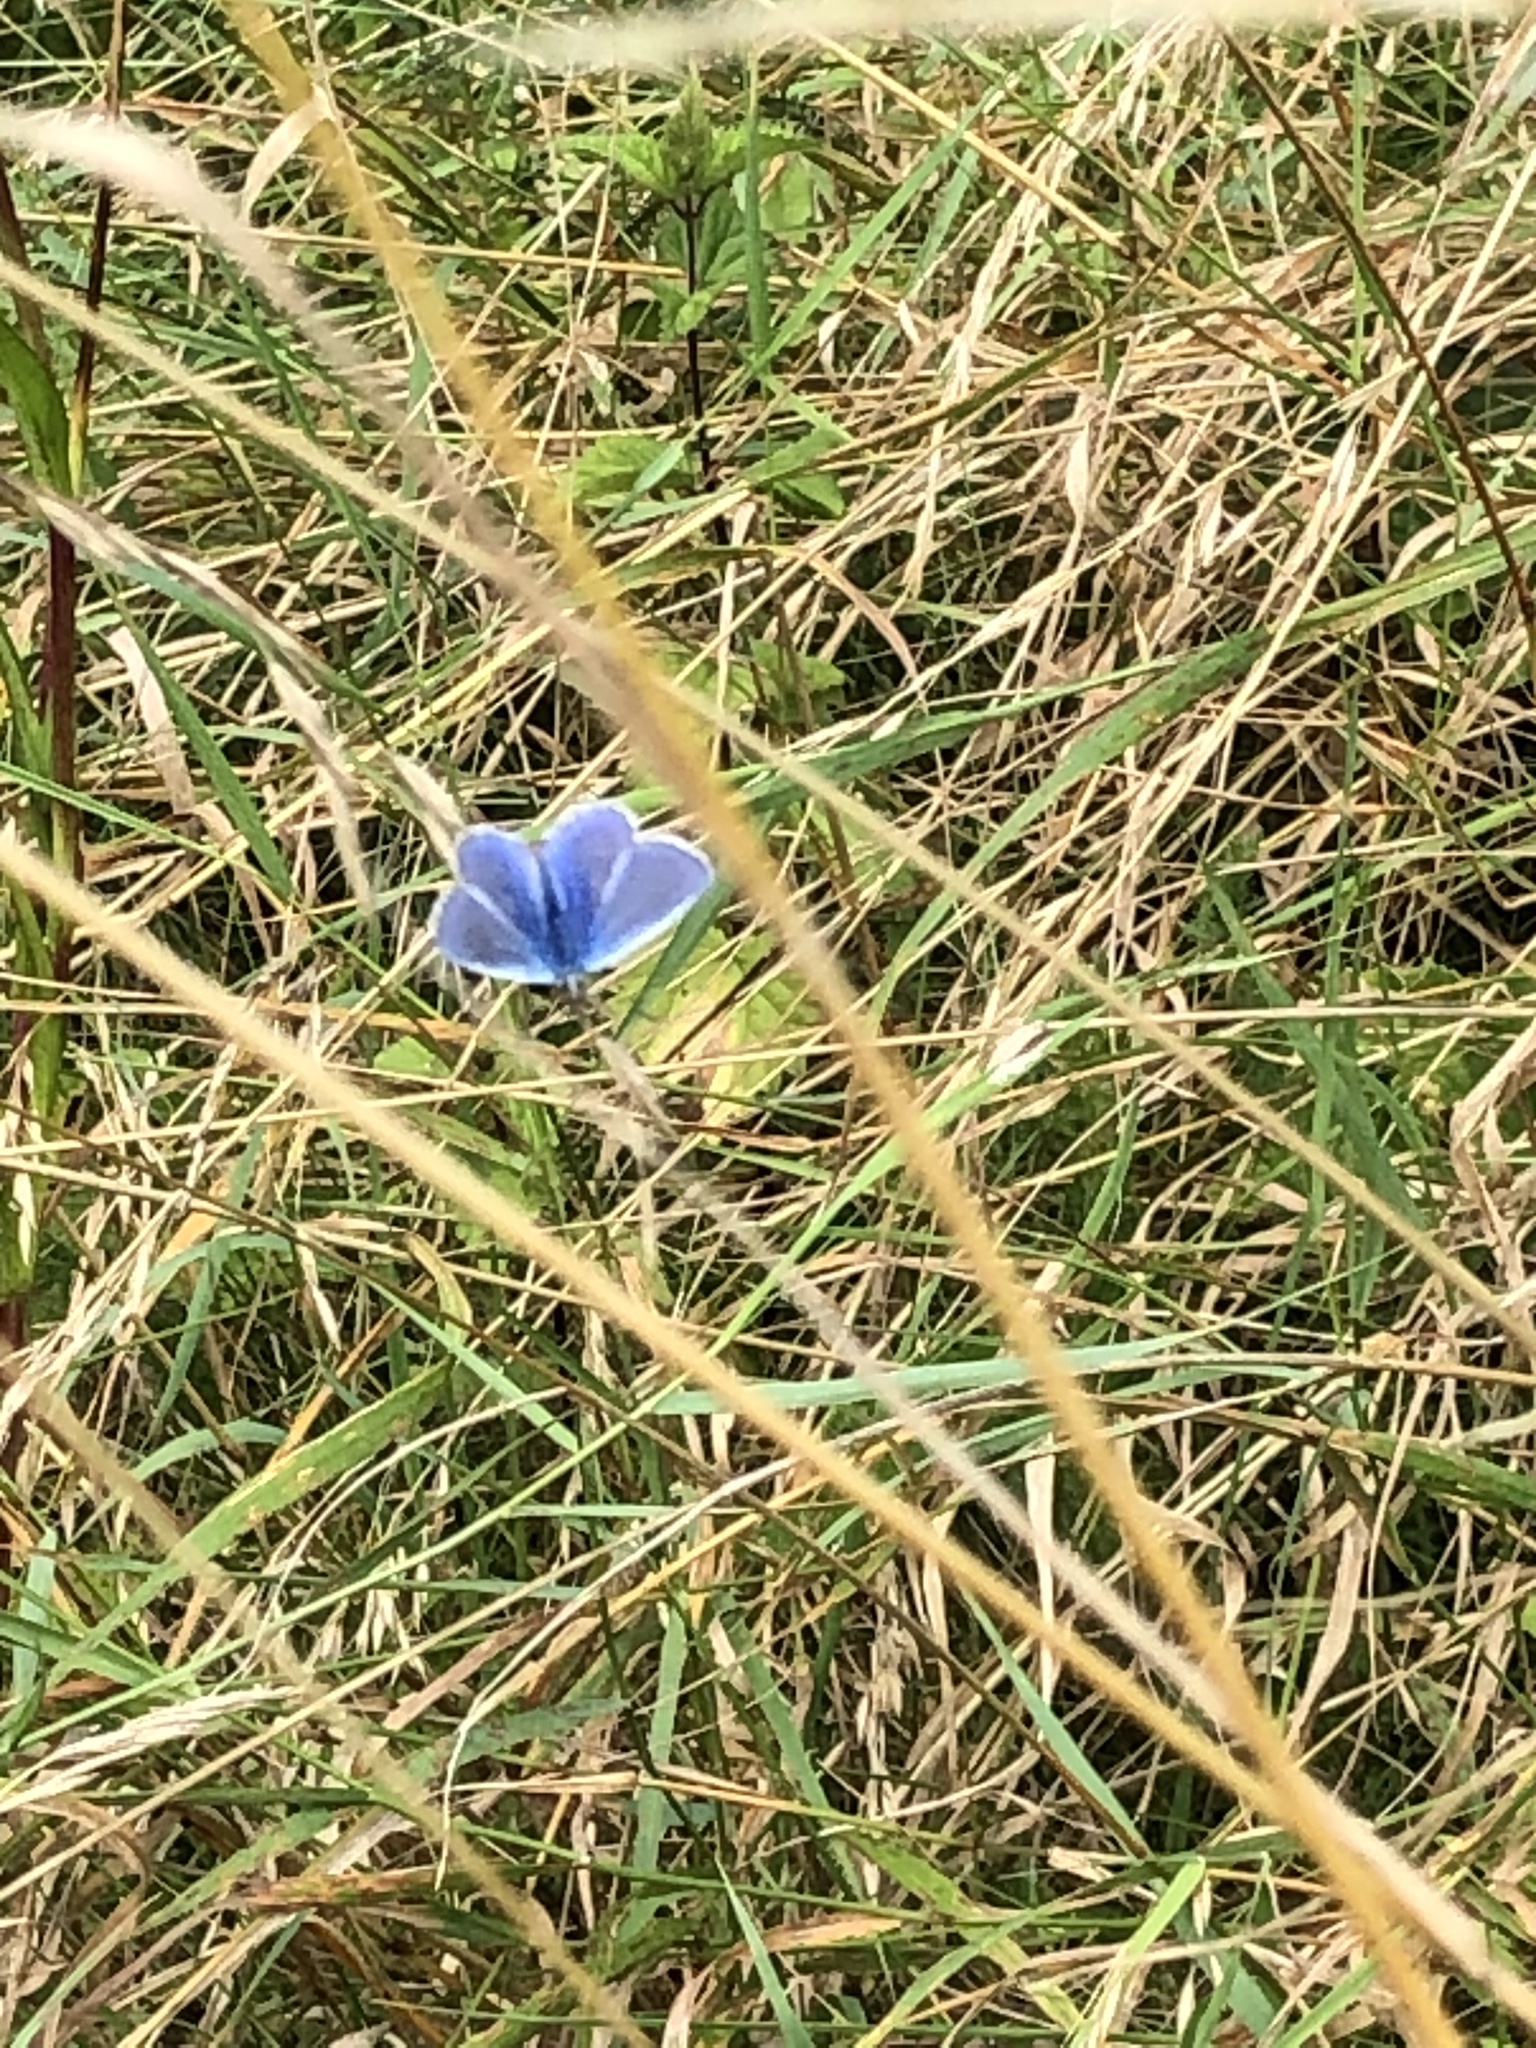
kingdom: Animalia
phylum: Arthropoda
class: Insecta
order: Lepidoptera
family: Lycaenidae
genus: Polyommatus
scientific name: Polyommatus icarus
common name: Common blue
